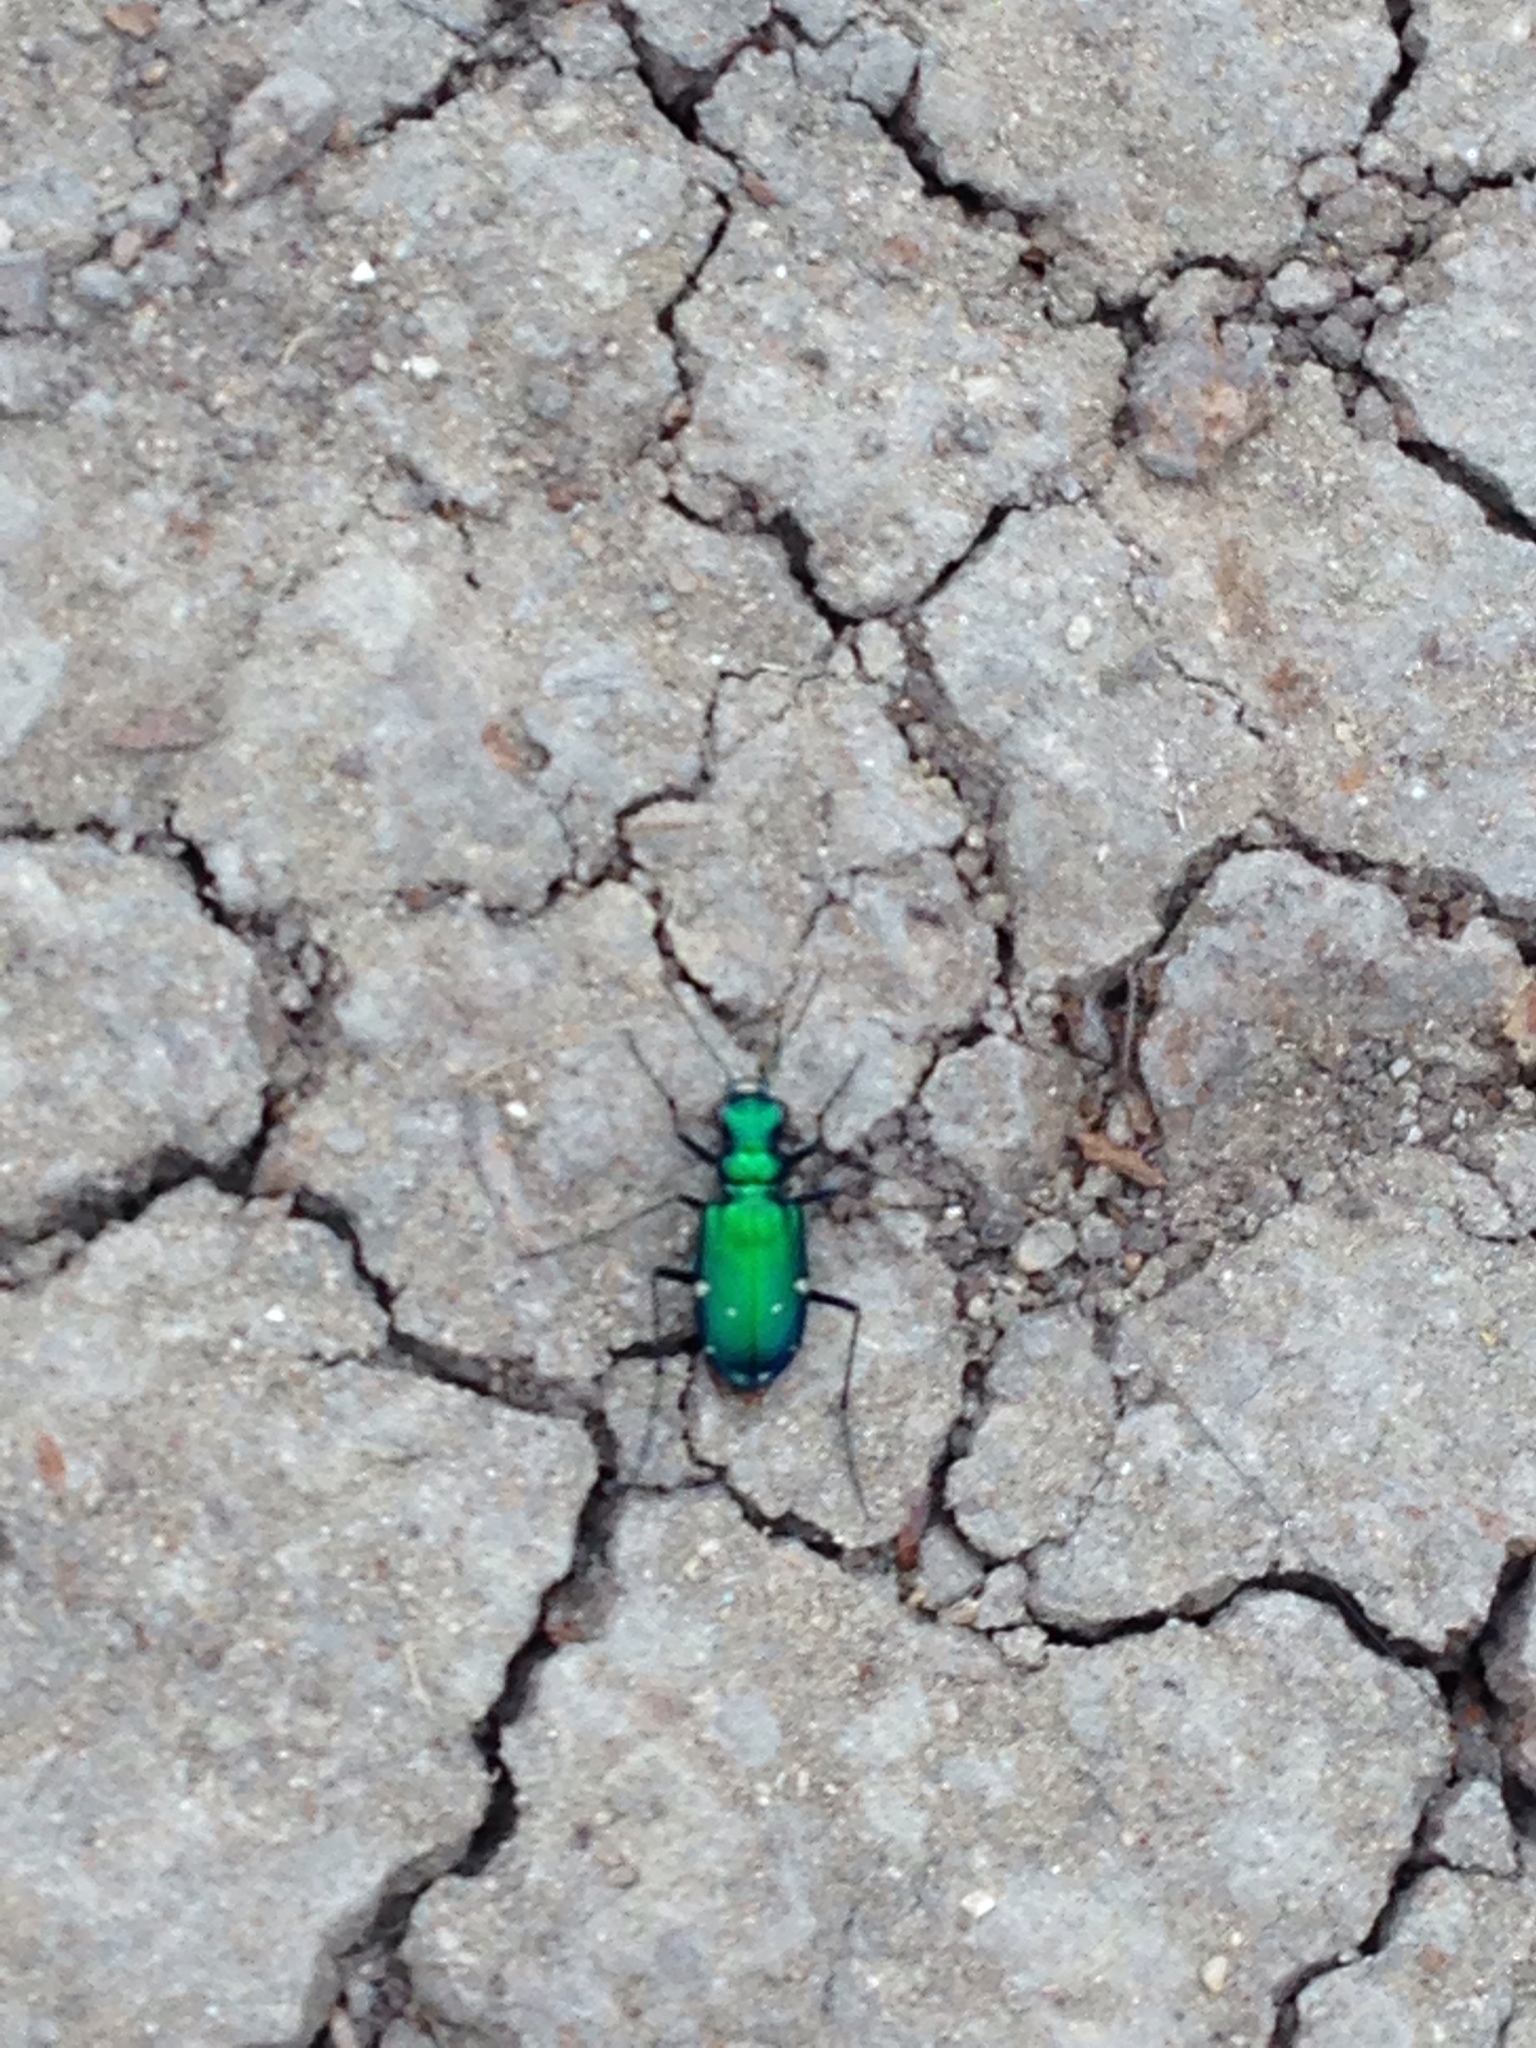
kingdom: Animalia
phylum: Arthropoda
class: Insecta
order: Coleoptera
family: Carabidae
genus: Cicindela
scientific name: Cicindela sexguttata
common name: Six-spotted tiger beetle
